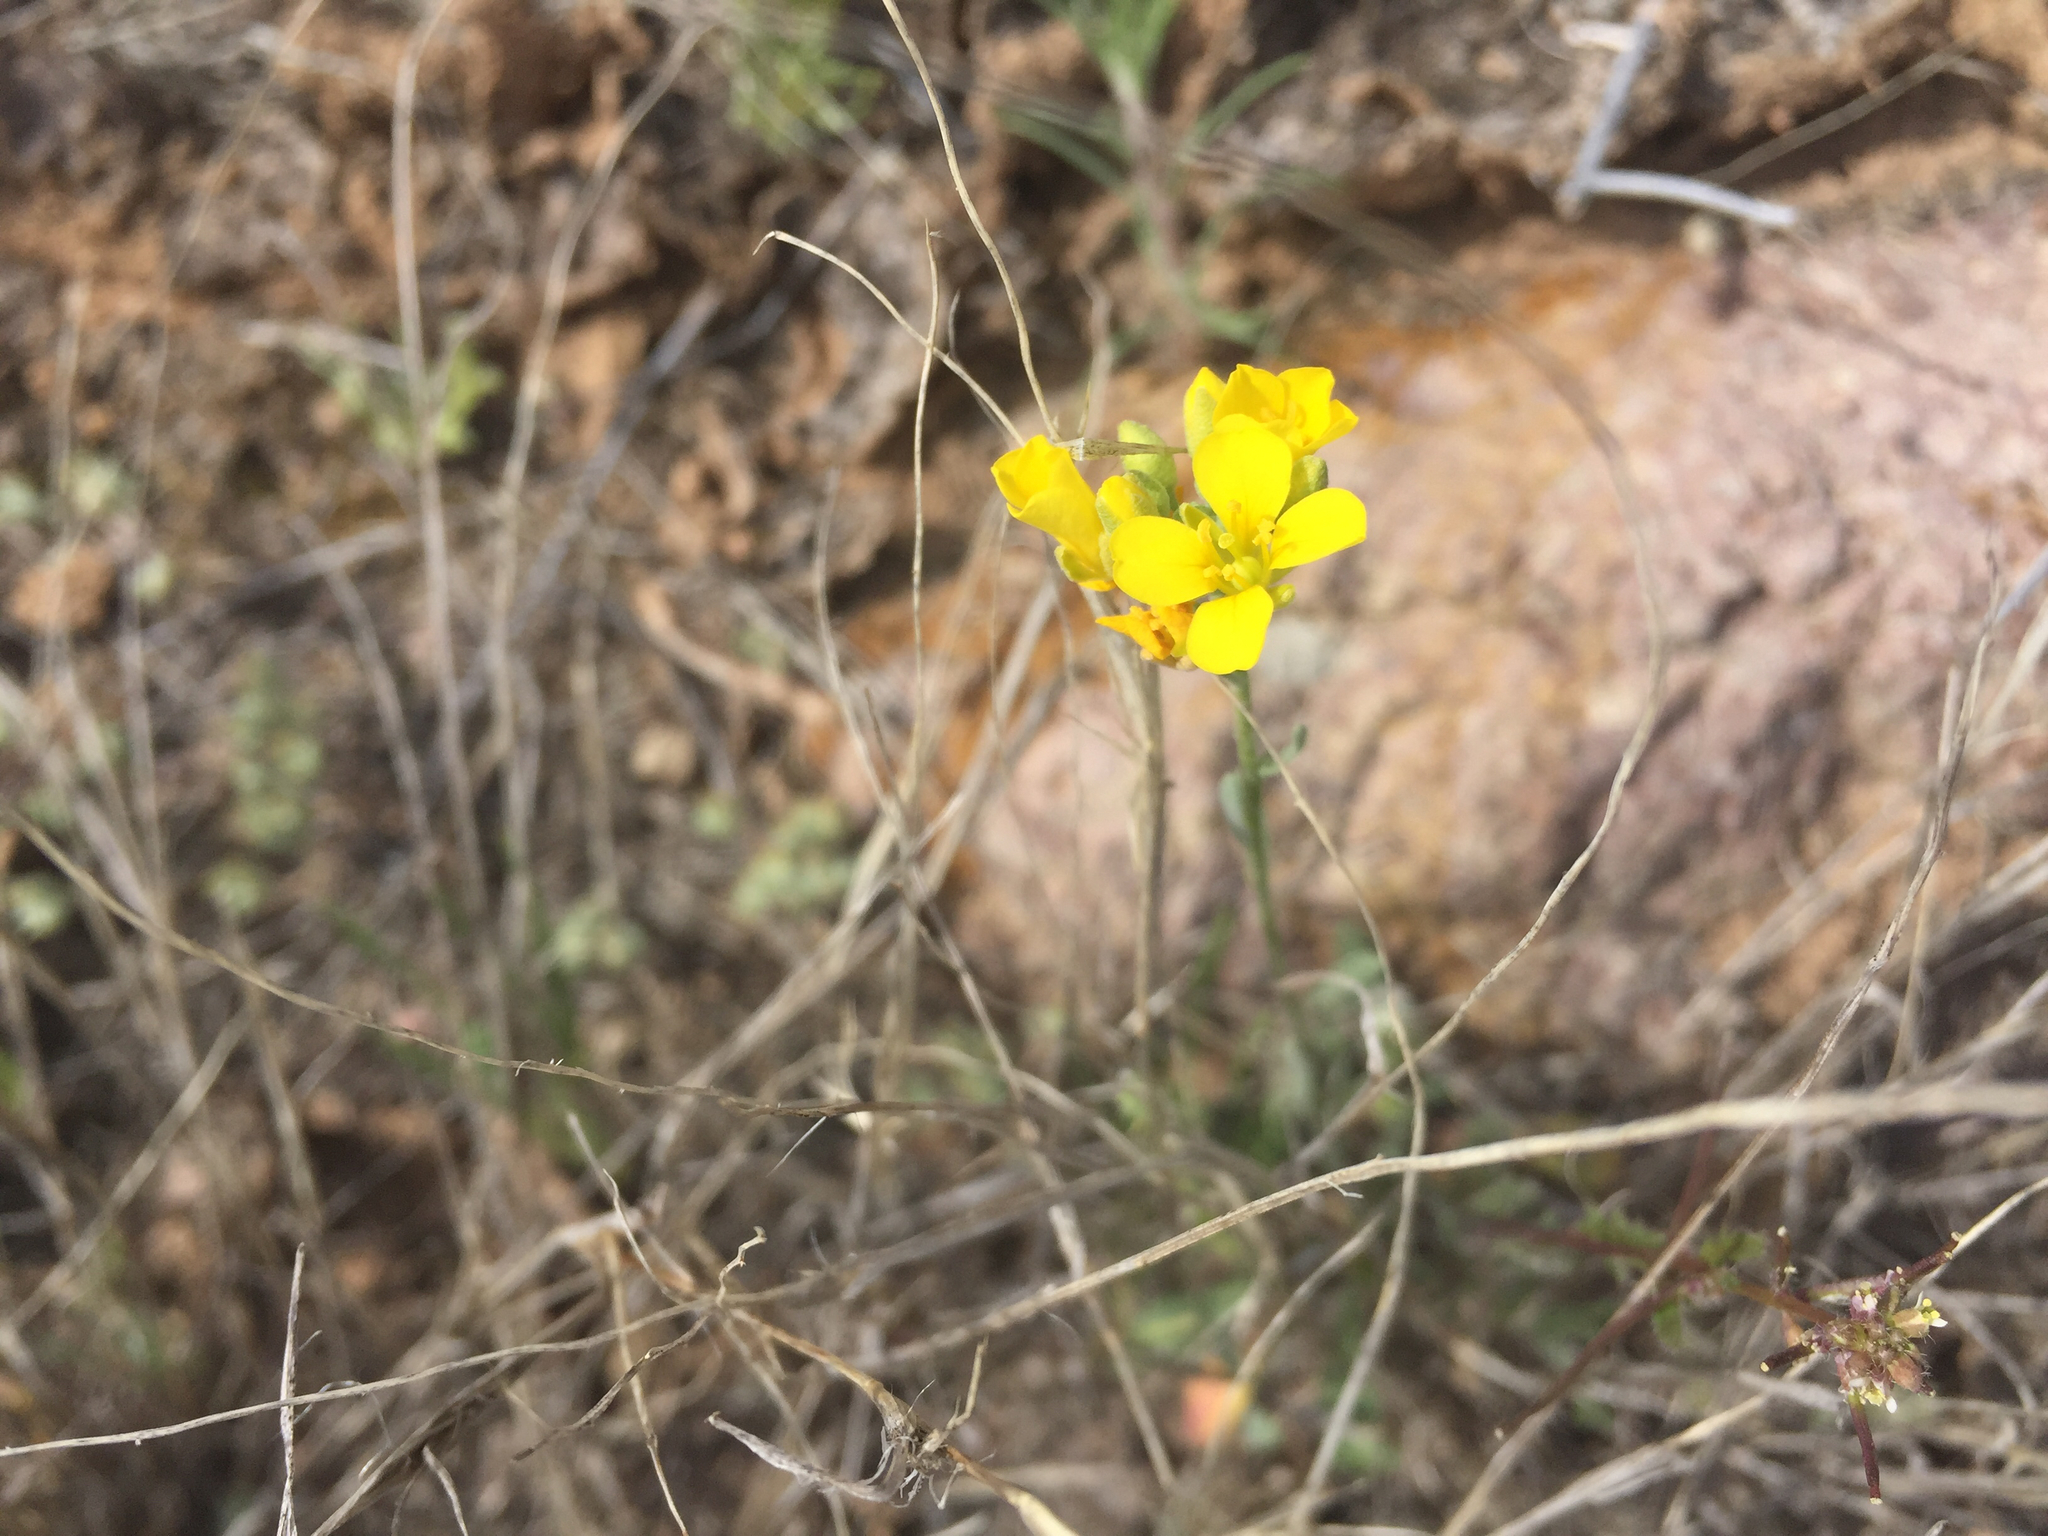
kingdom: Plantae
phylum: Tracheophyta
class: Magnoliopsida
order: Brassicales
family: Brassicaceae
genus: Physaria
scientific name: Physaria gordonii
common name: Gordon's bladderpod
